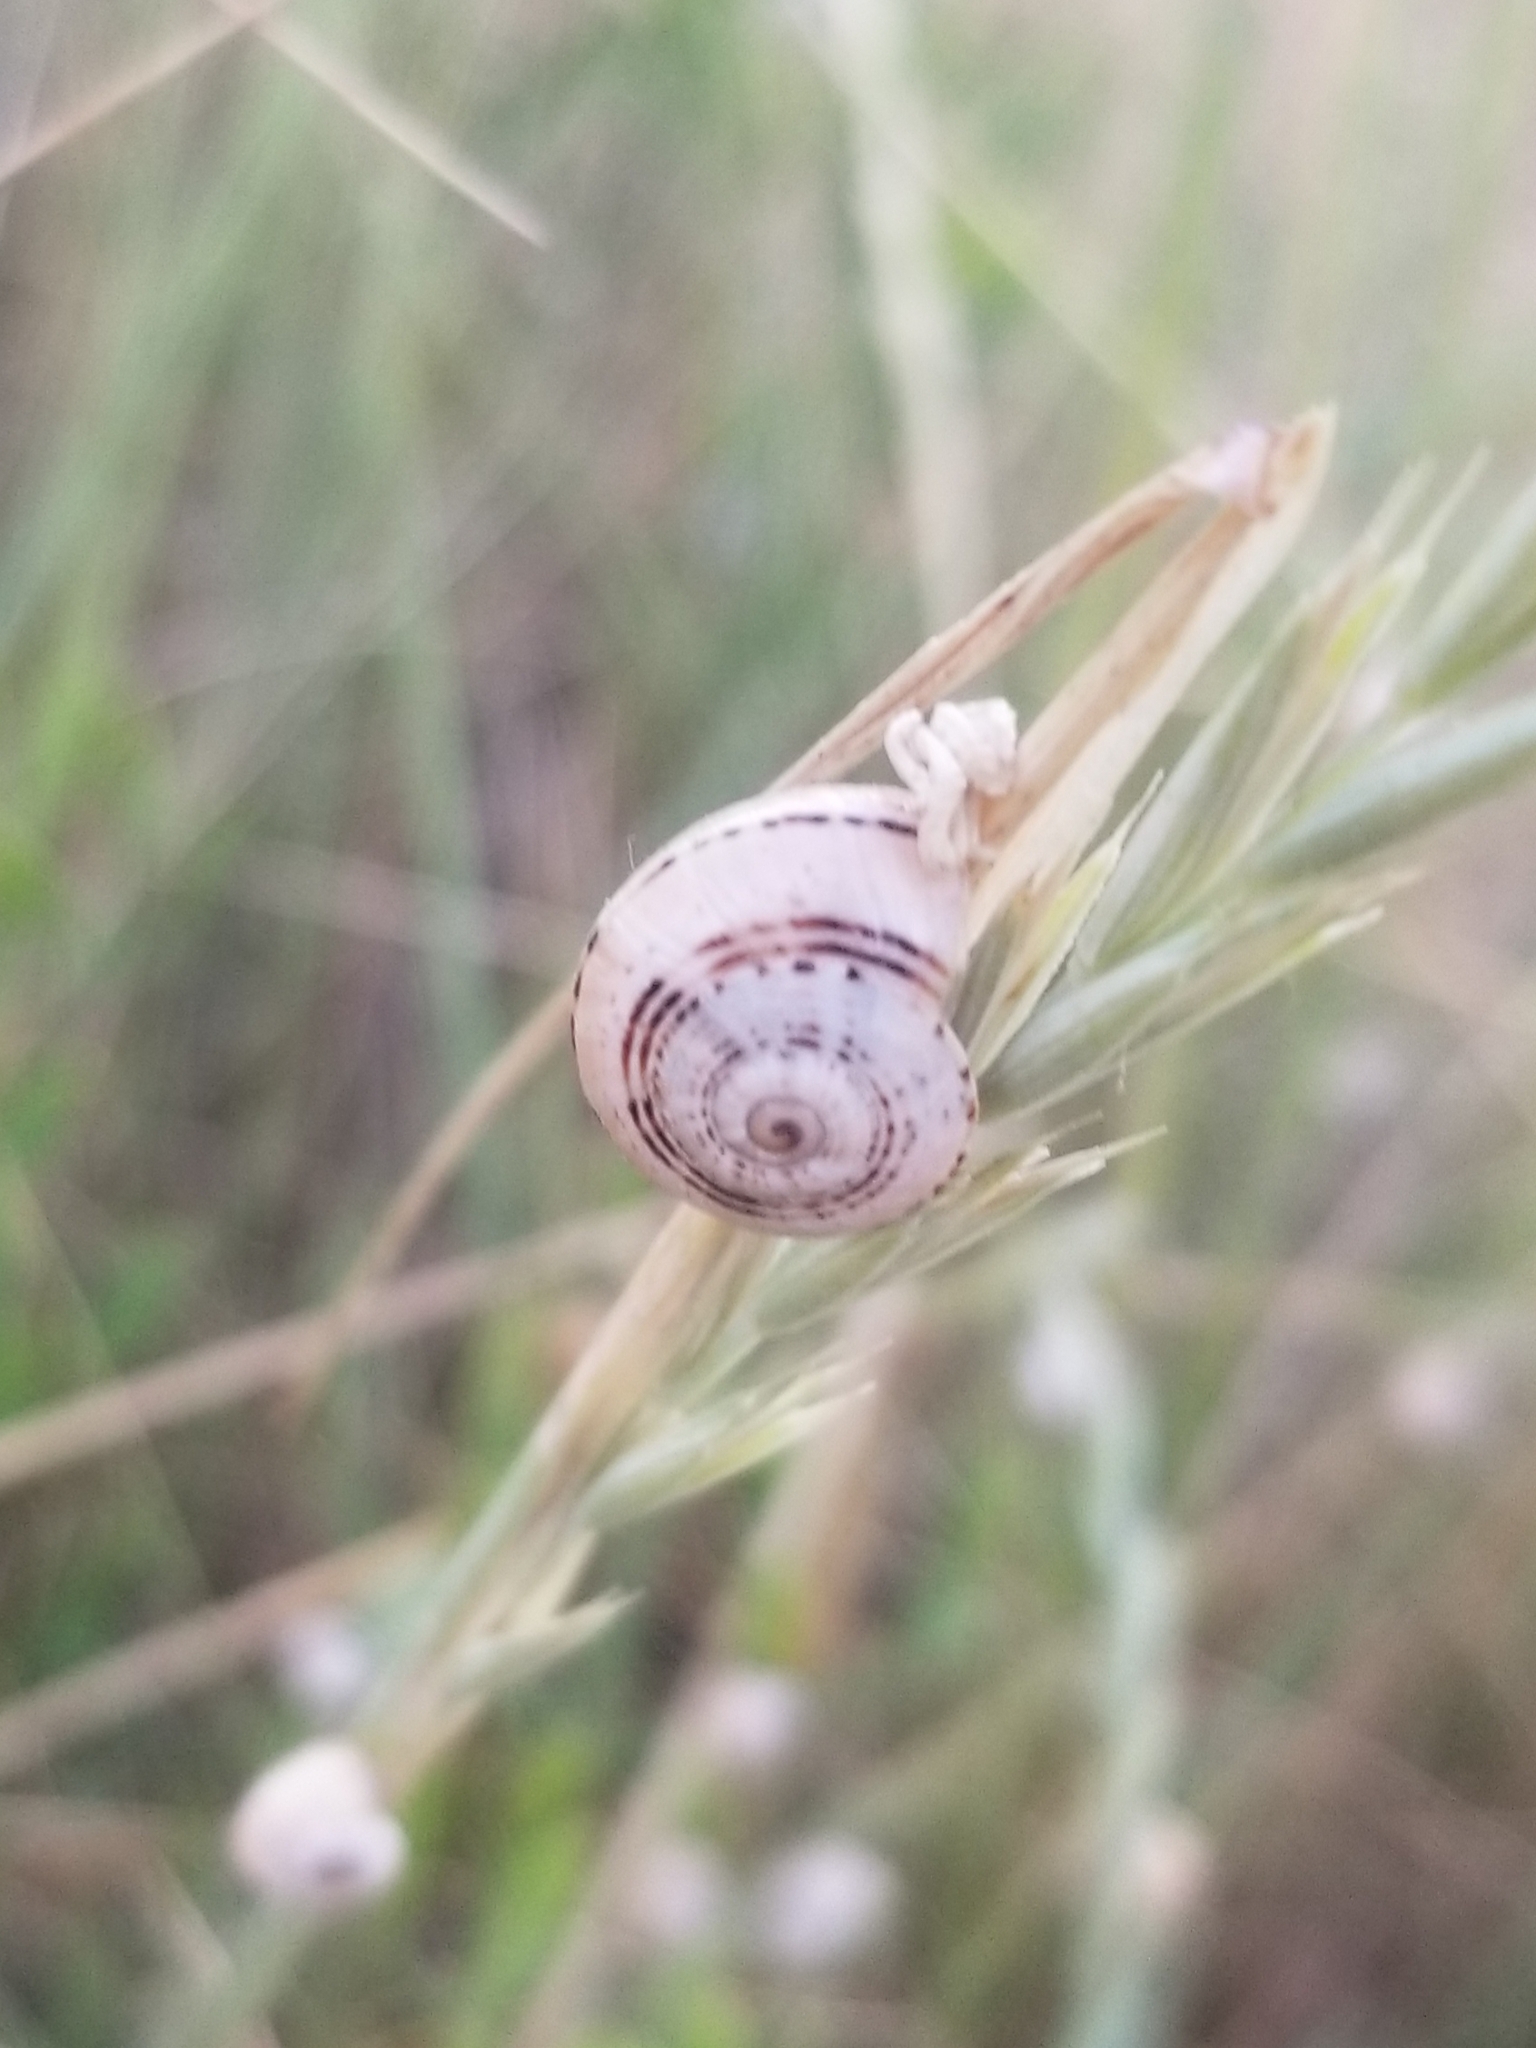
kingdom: Animalia
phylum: Mollusca
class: Gastropoda
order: Stylommatophora
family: Helicidae
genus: Theba
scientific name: Theba pisana
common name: White snail
